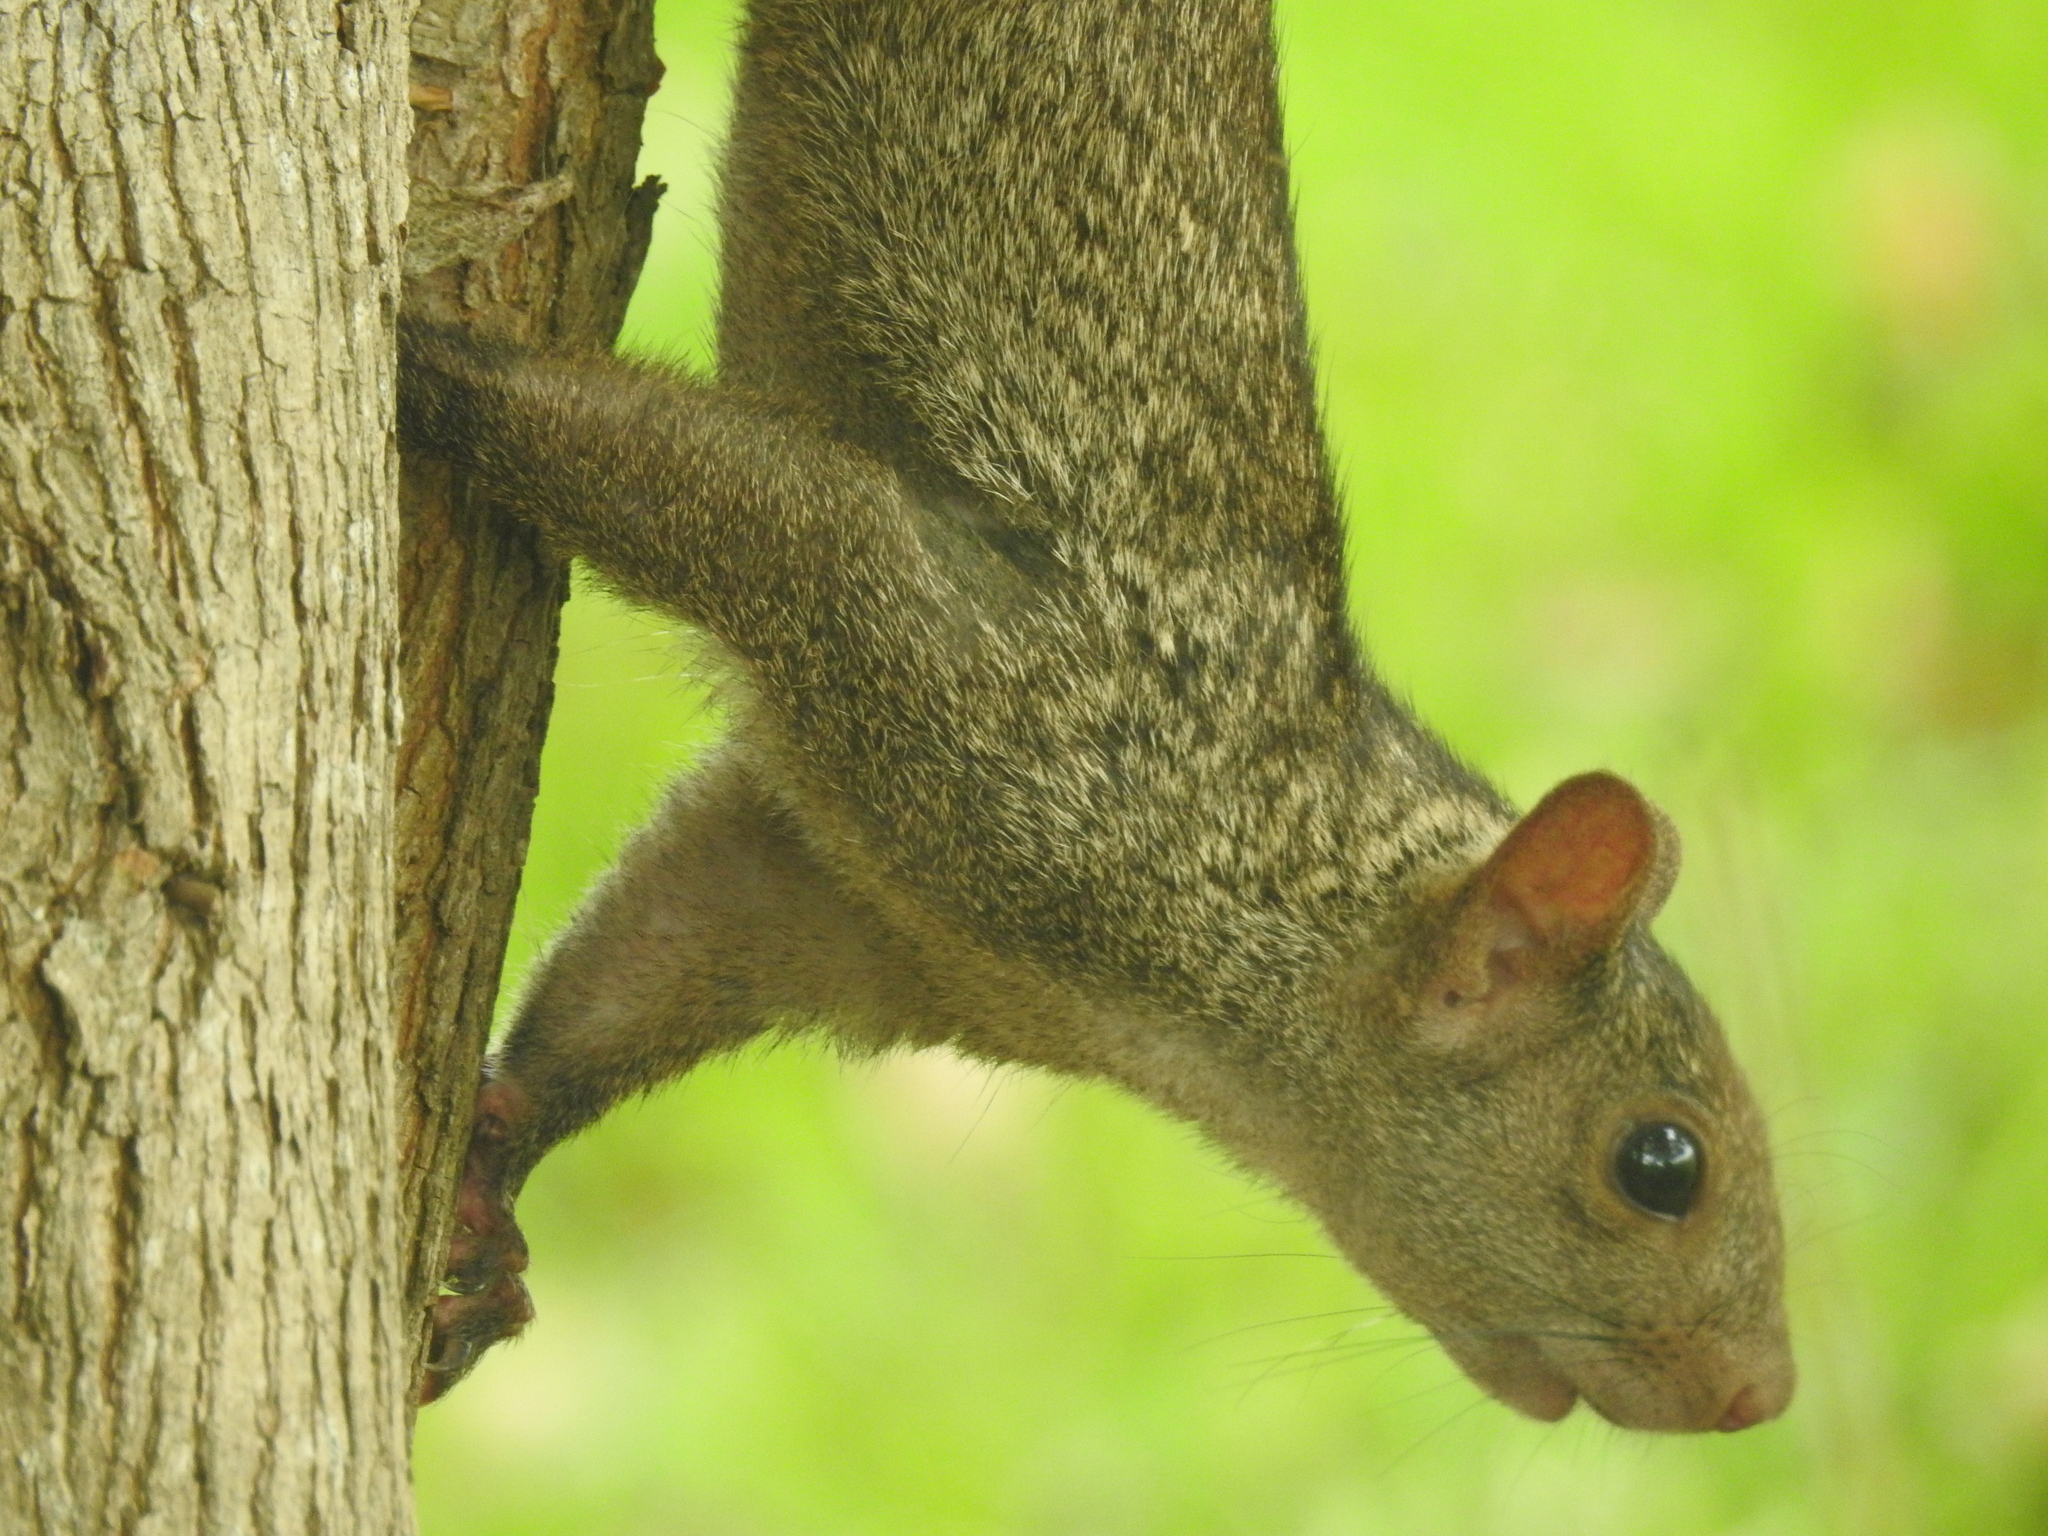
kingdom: Animalia
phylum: Chordata
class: Mammalia
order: Rodentia
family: Sciuridae
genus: Sciurus
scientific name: Sciurus yucatanensis
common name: Yucatan squirrel
